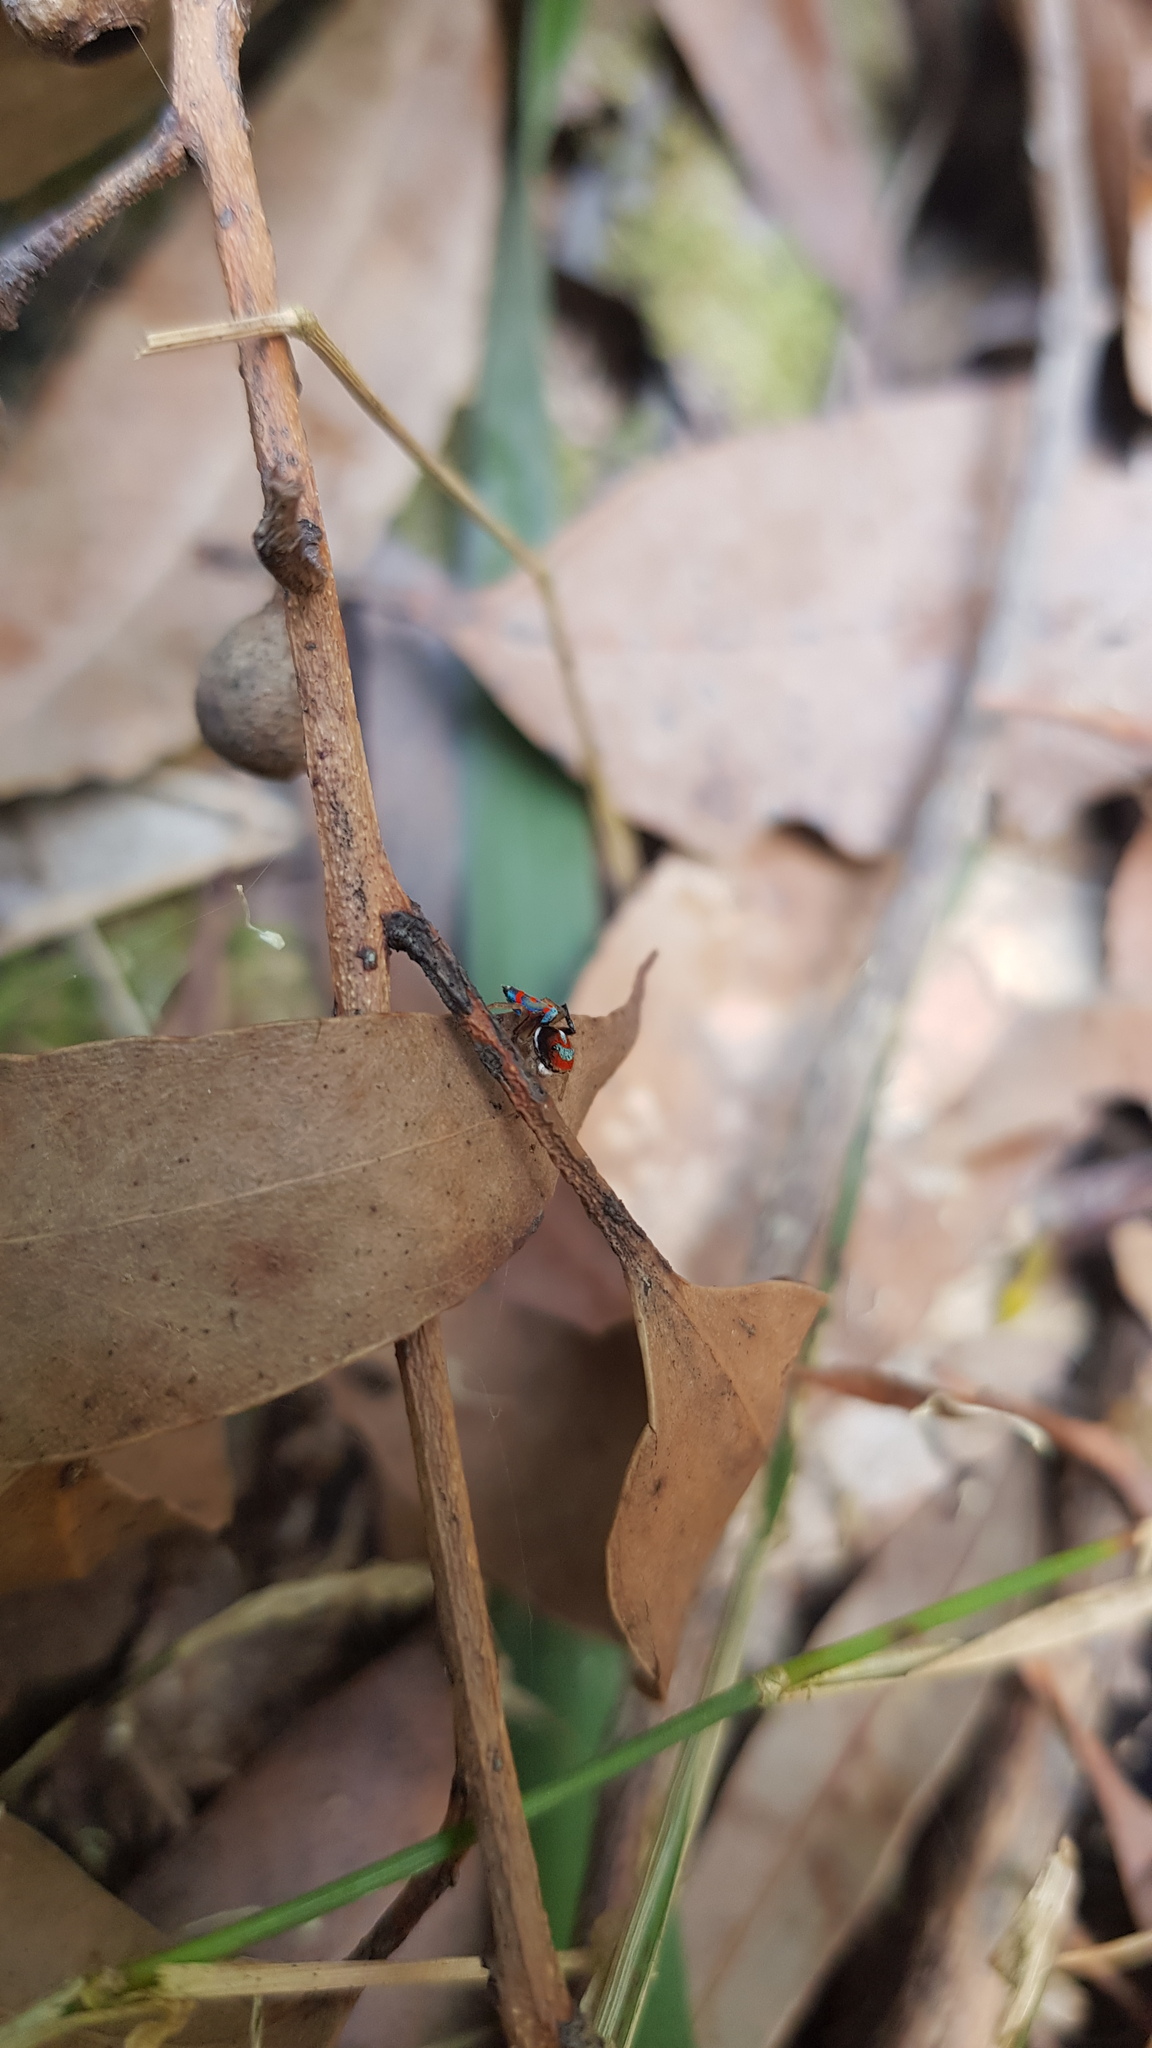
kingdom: Animalia
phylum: Arthropoda
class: Arachnida
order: Araneae
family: Salticidae
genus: Maratus
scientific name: Maratus splendens
